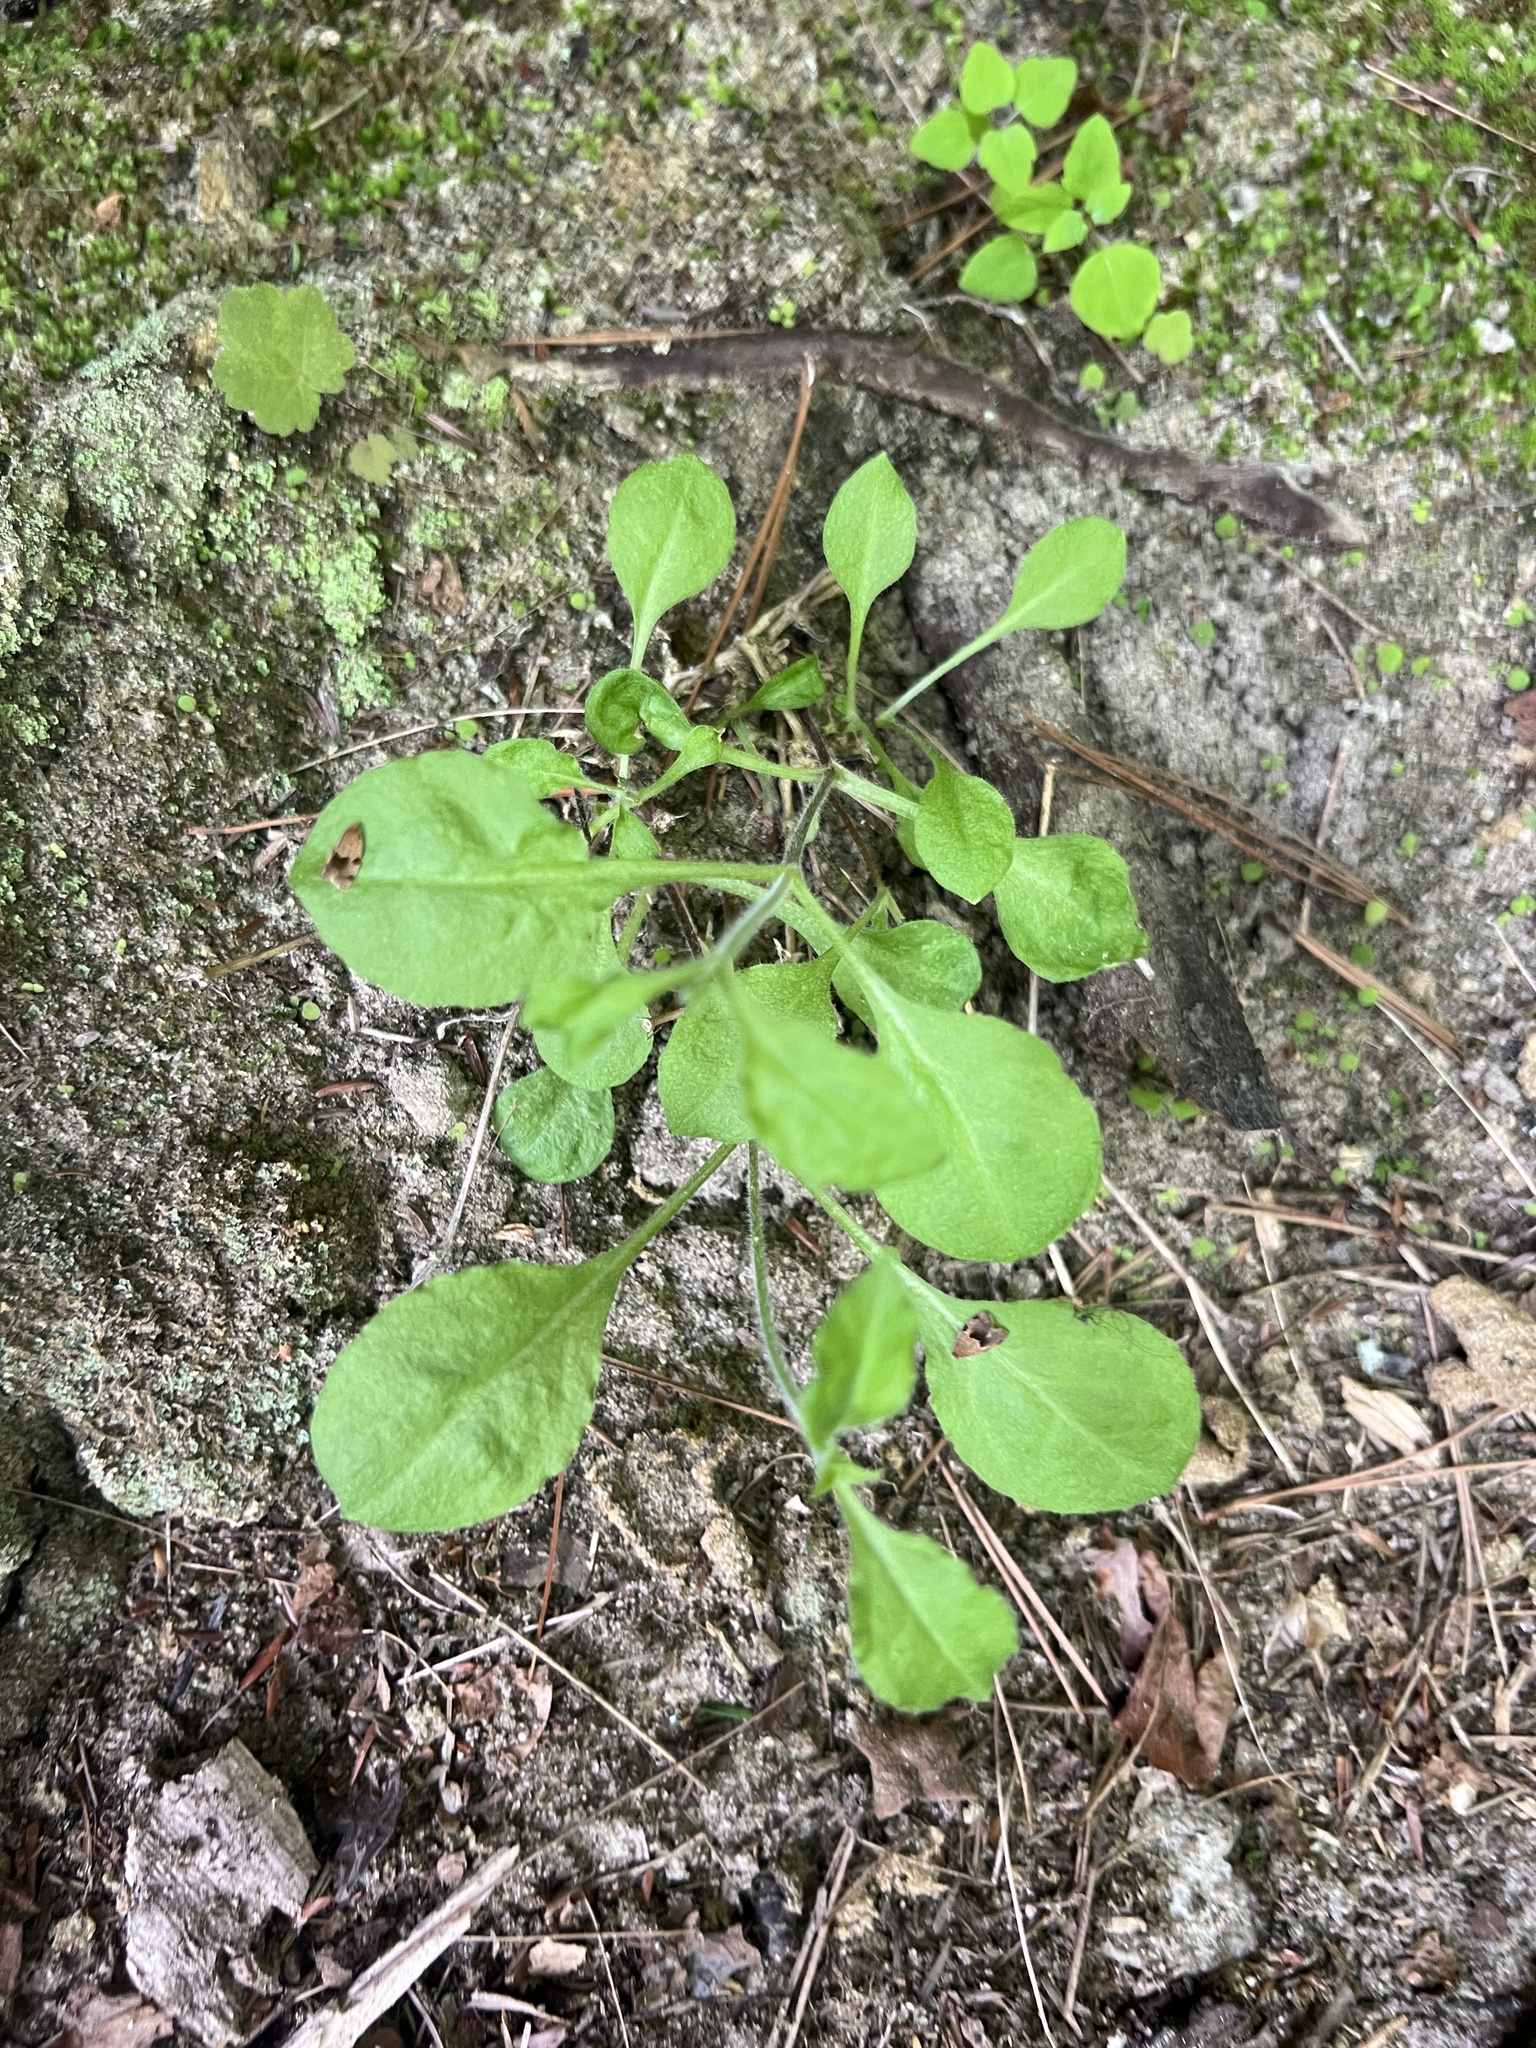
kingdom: Plantae
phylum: Tracheophyta
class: Magnoliopsida
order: Caryophyllales
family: Caryophyllaceae
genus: Silene
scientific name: Silene rotundifolia
